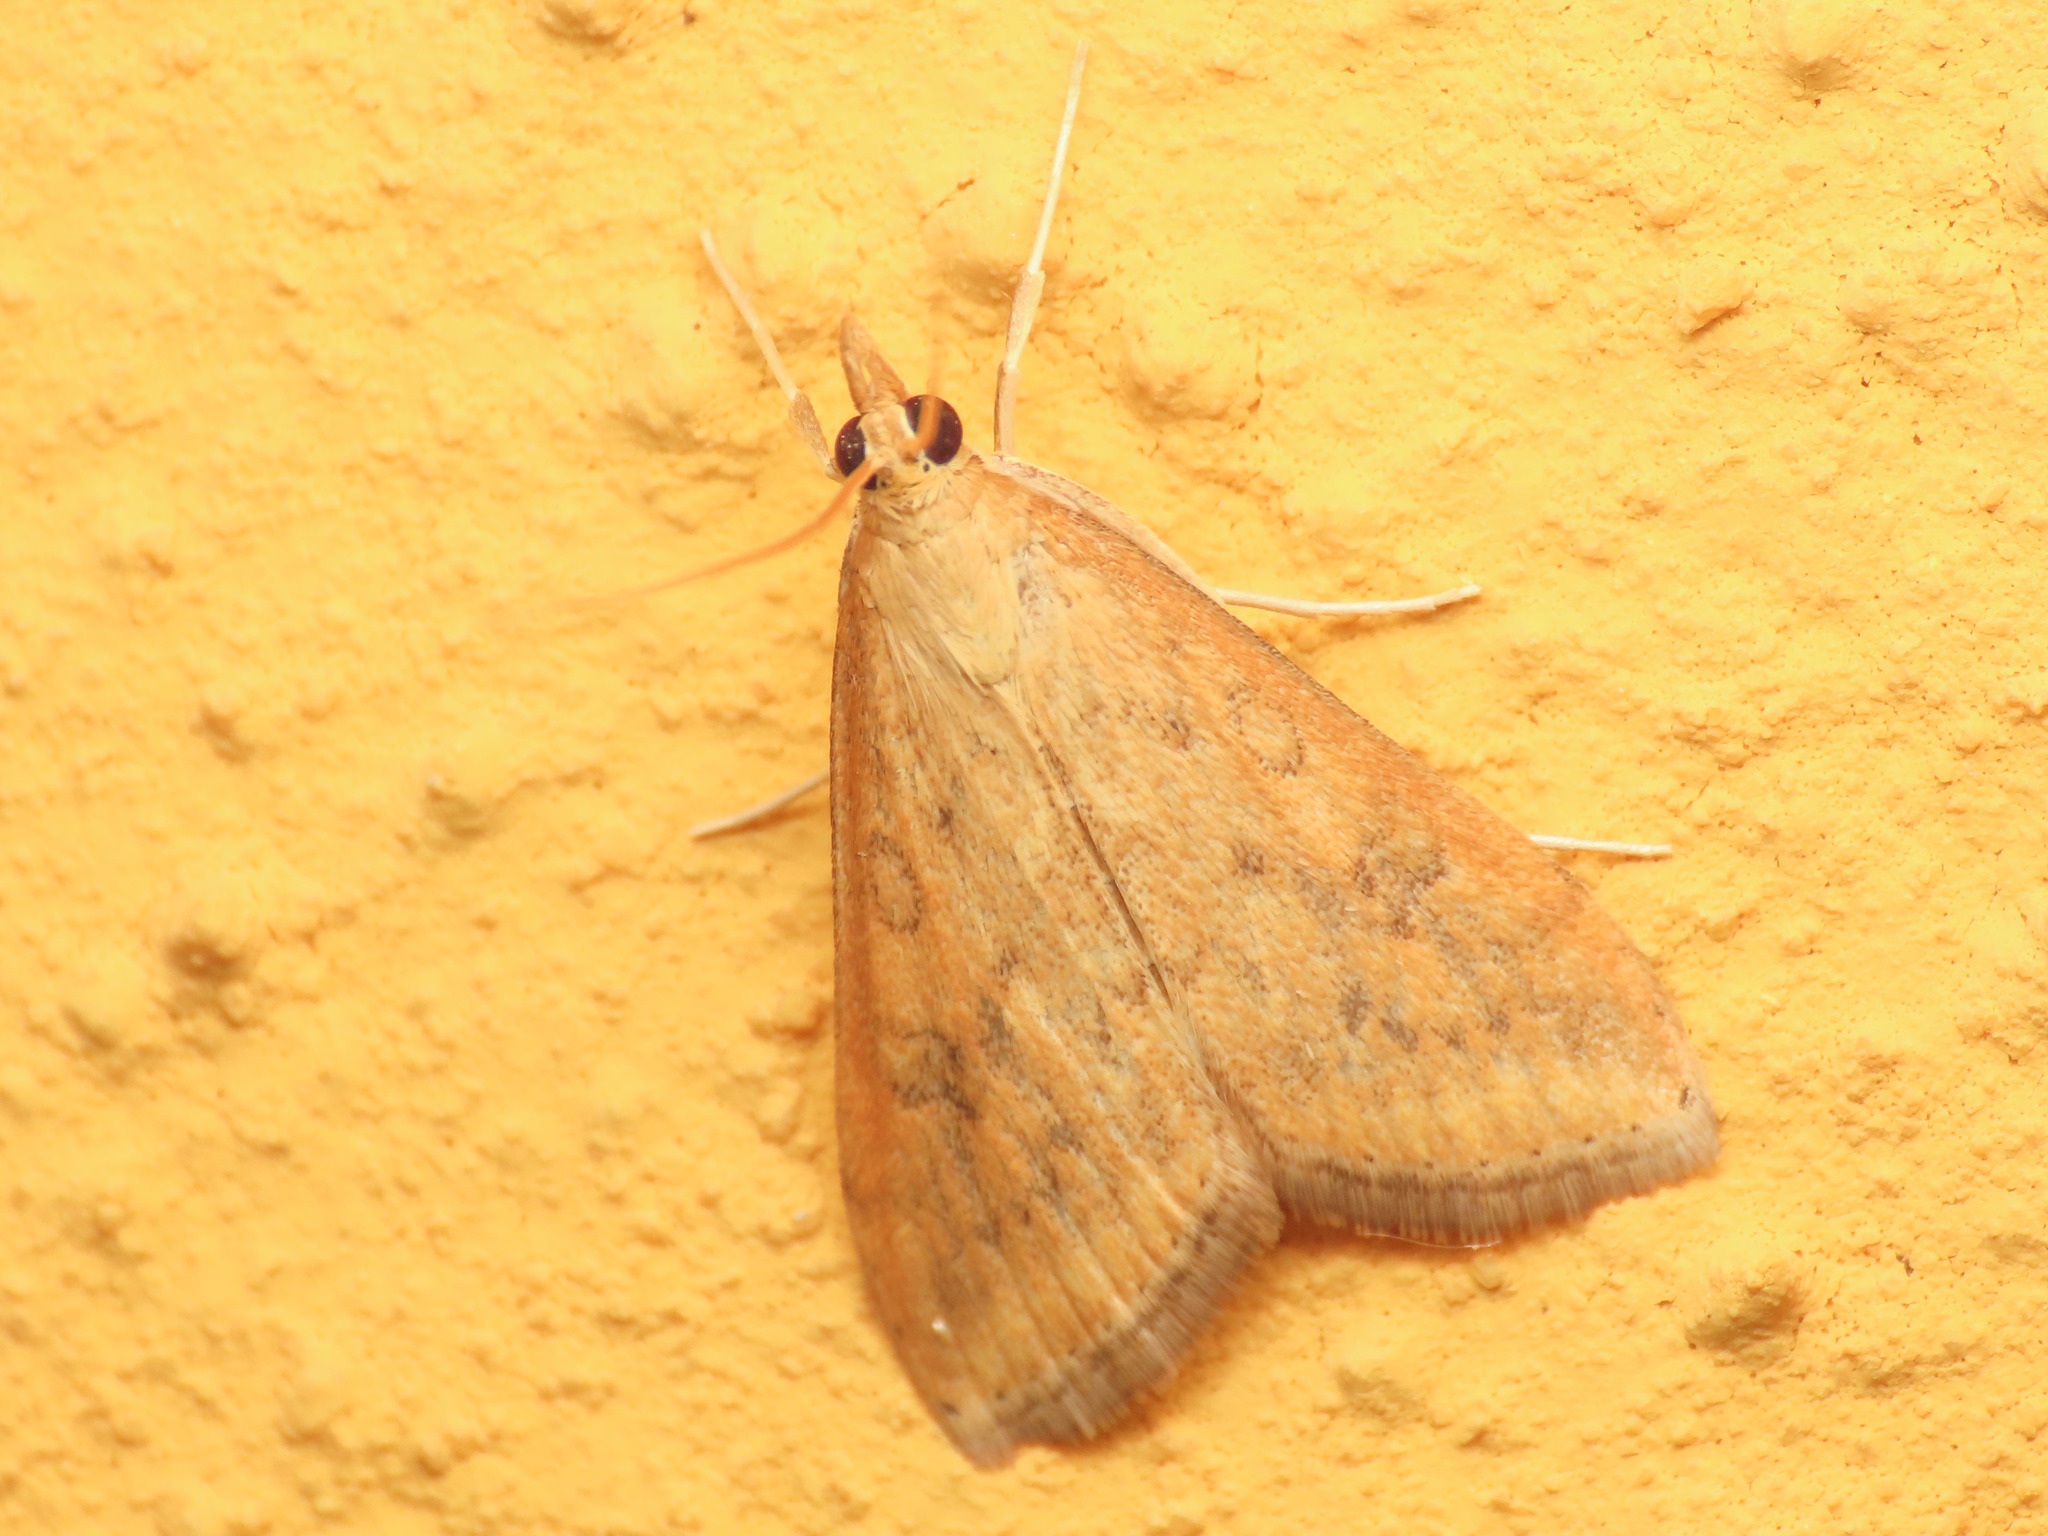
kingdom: Animalia
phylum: Arthropoda
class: Insecta
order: Lepidoptera
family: Crambidae
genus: Udea
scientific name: Udea ferrugalis
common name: Rusty dot
